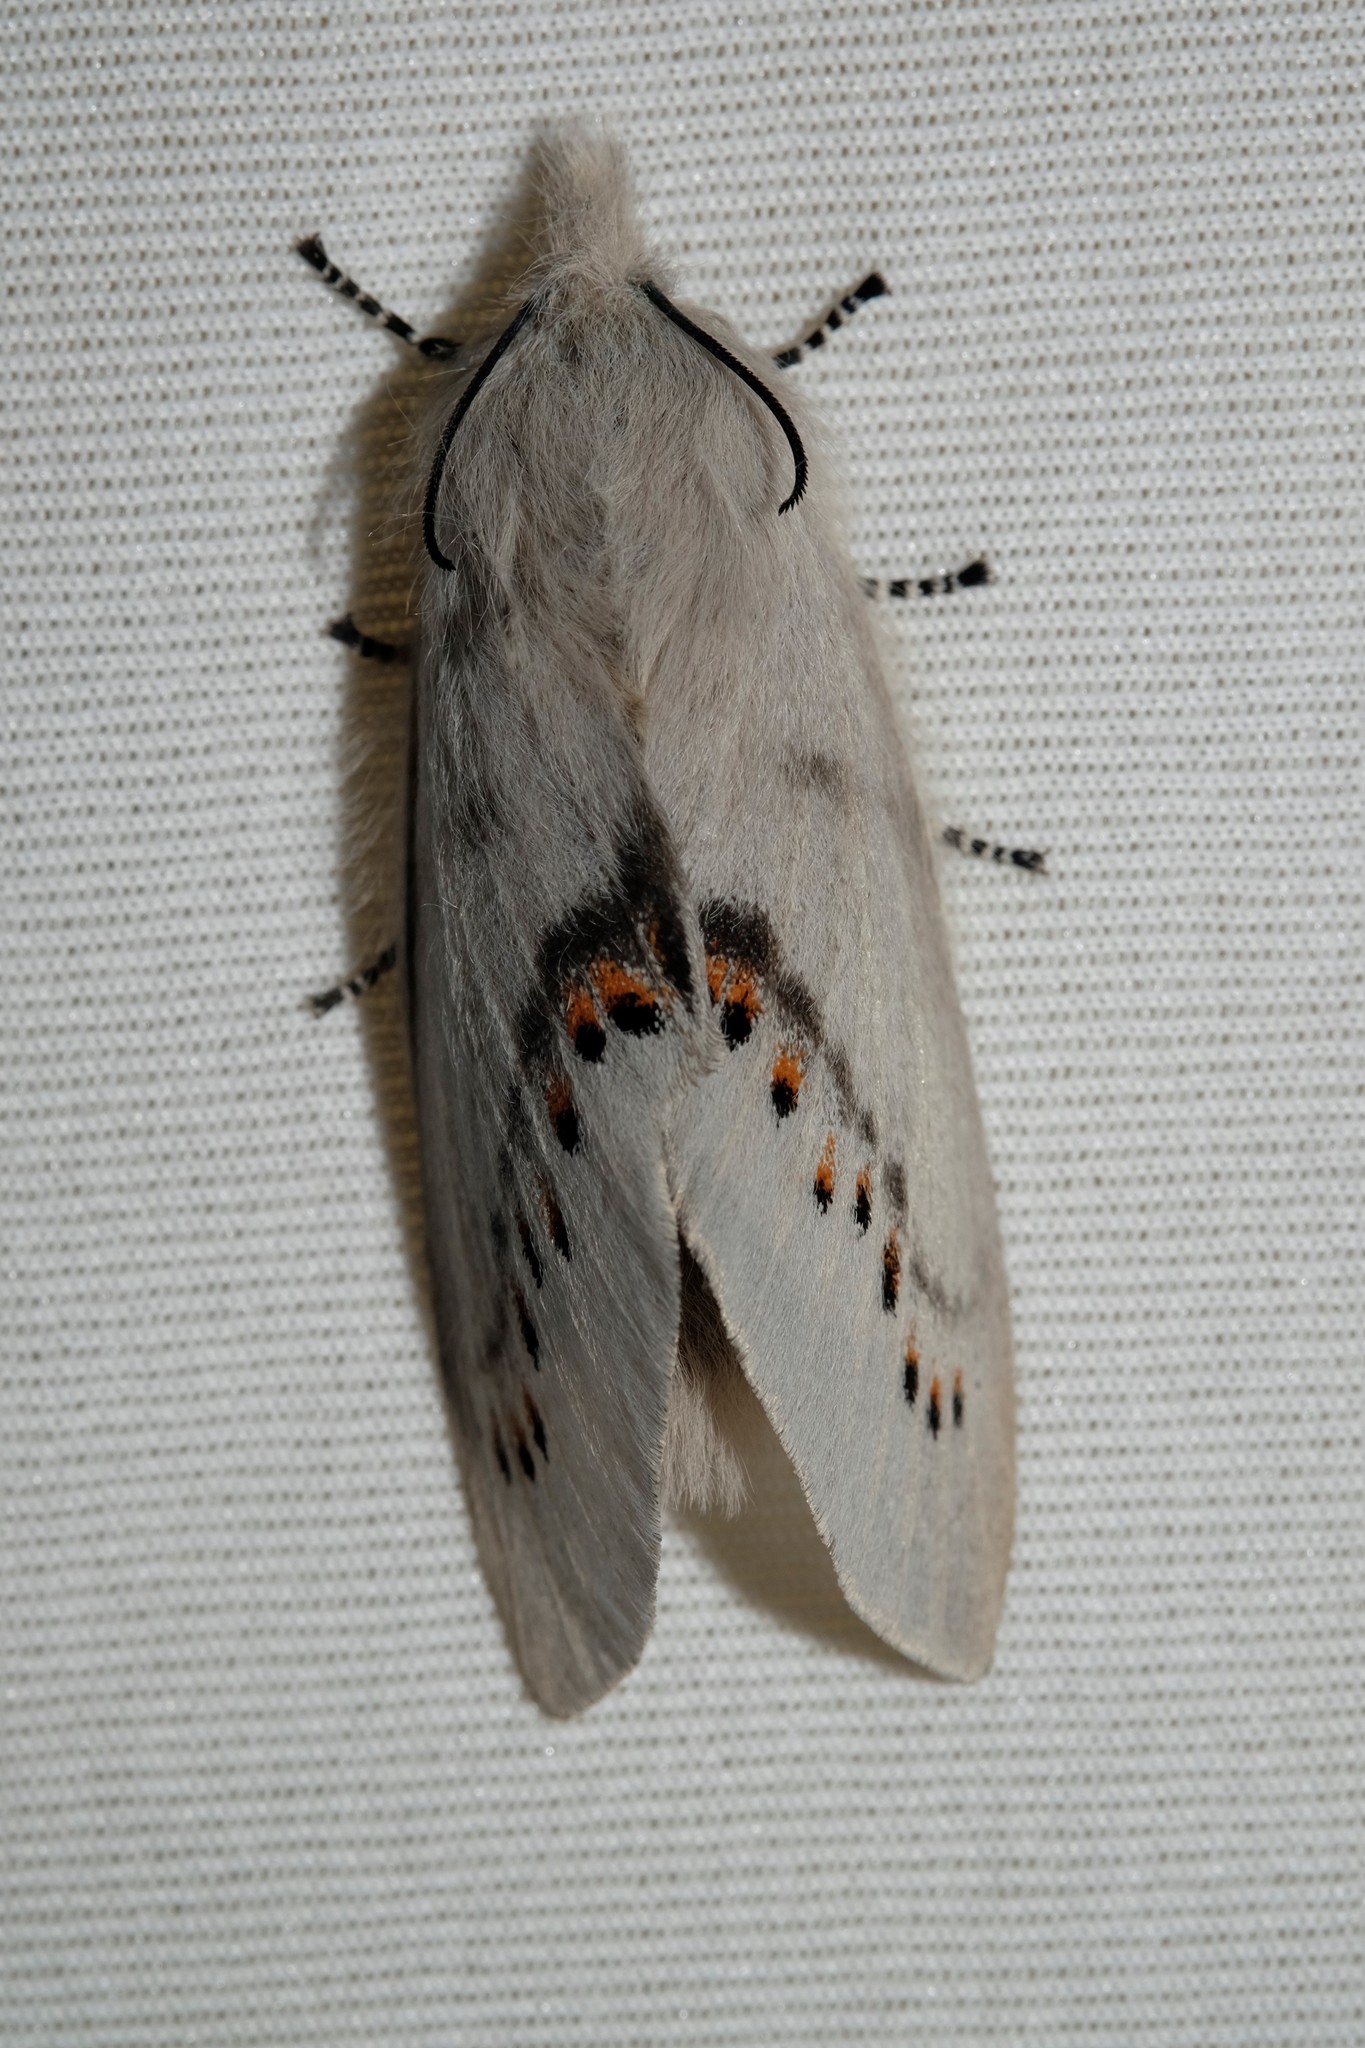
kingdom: Animalia
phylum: Arthropoda
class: Insecta
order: Lepidoptera
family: Lasiocampidae
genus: Pinara
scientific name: Pinara divisa
